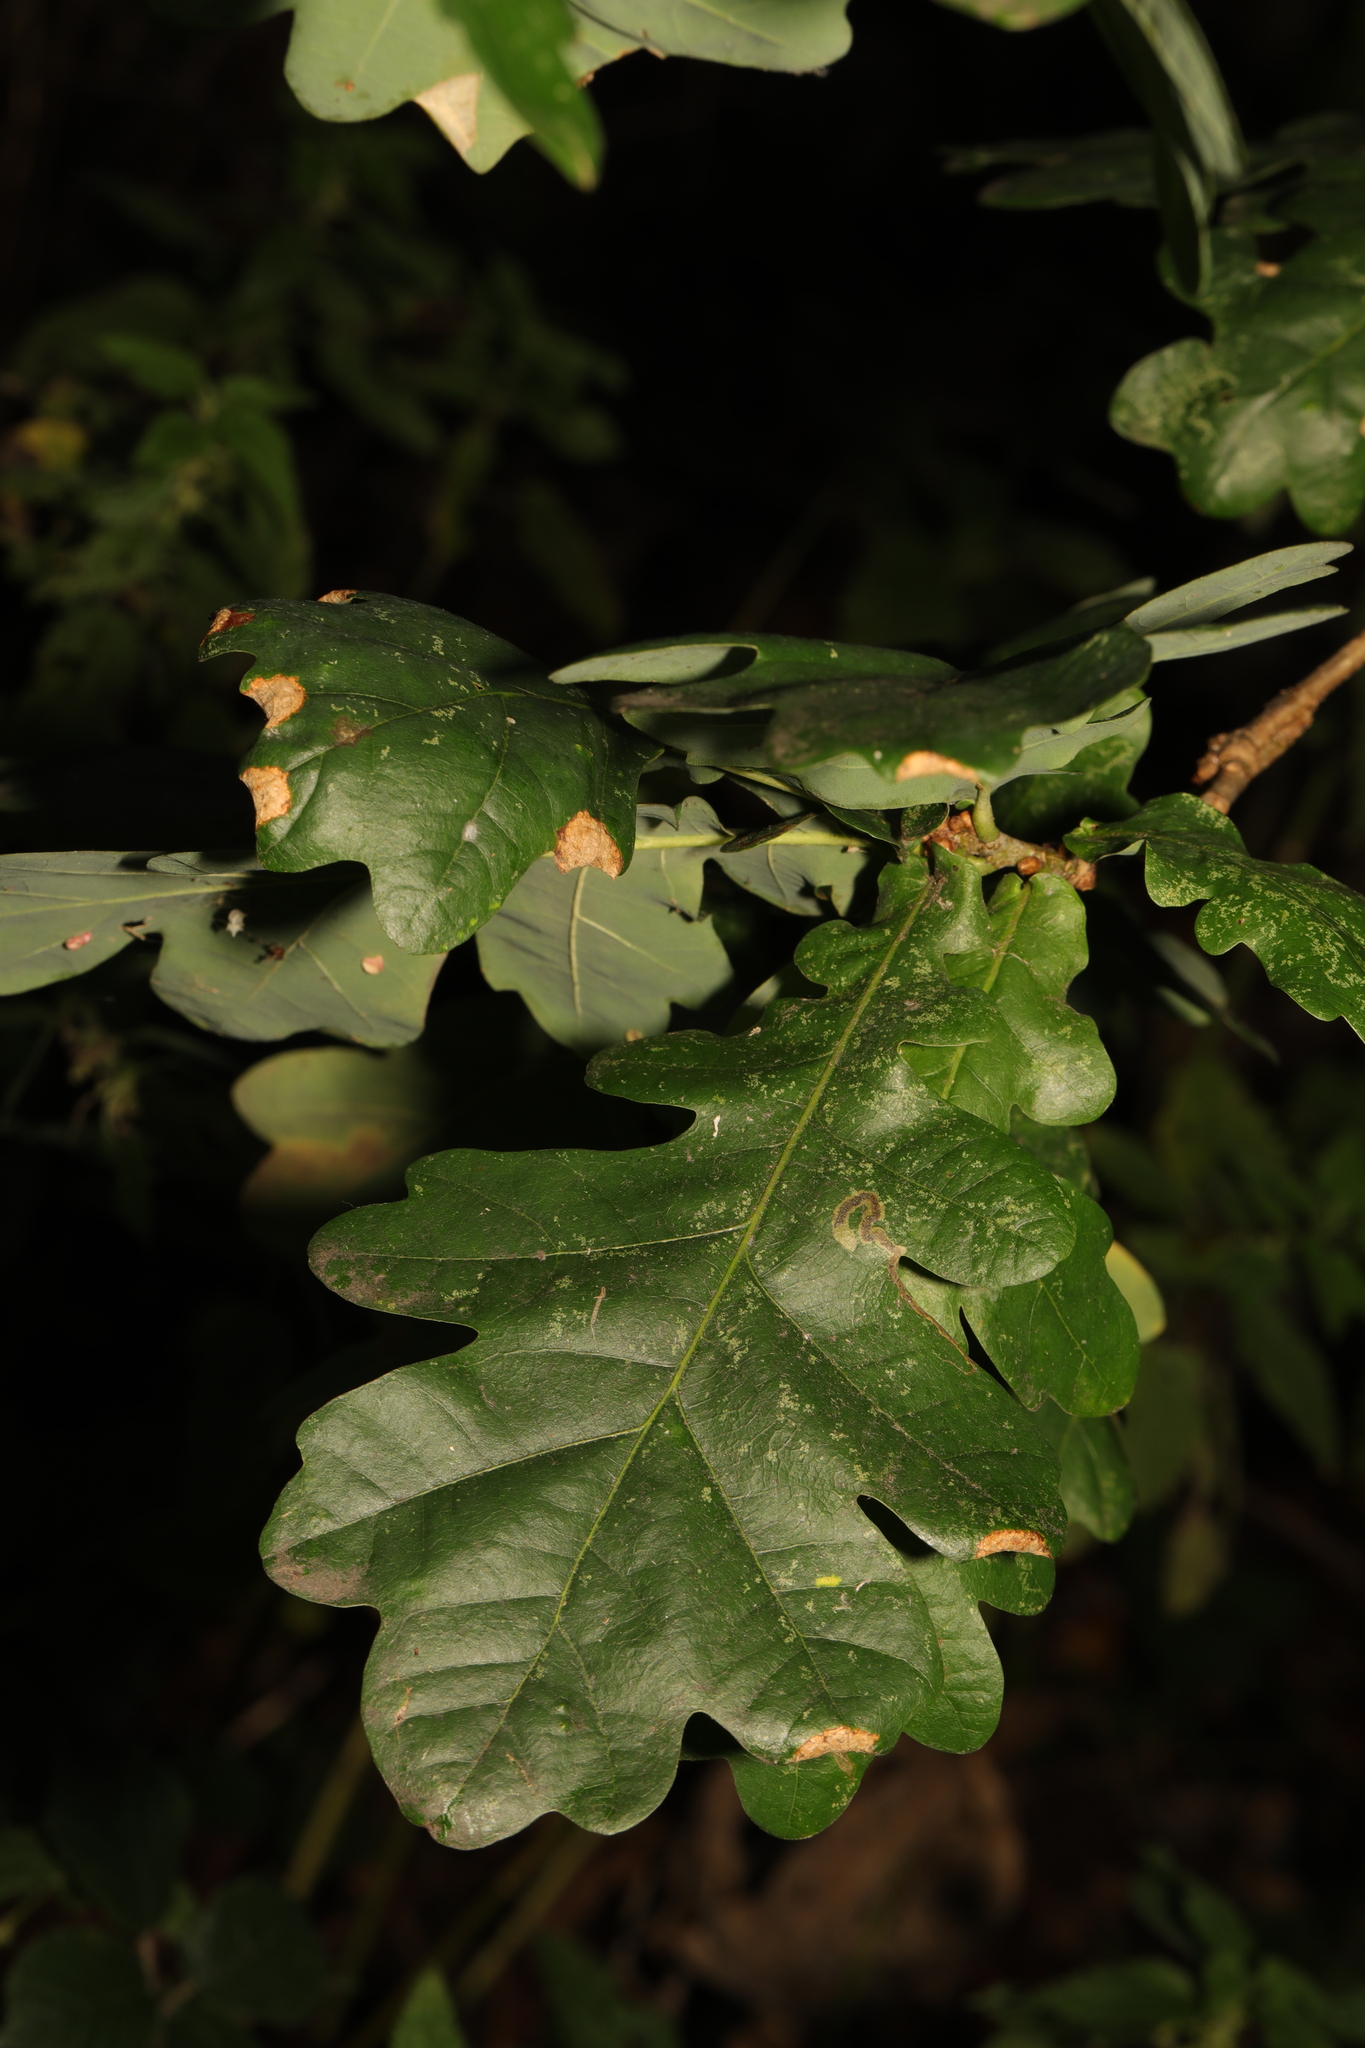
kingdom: Plantae
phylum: Tracheophyta
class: Magnoliopsida
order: Fagales
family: Fagaceae
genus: Quercus
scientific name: Quercus robur
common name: Pedunculate oak
